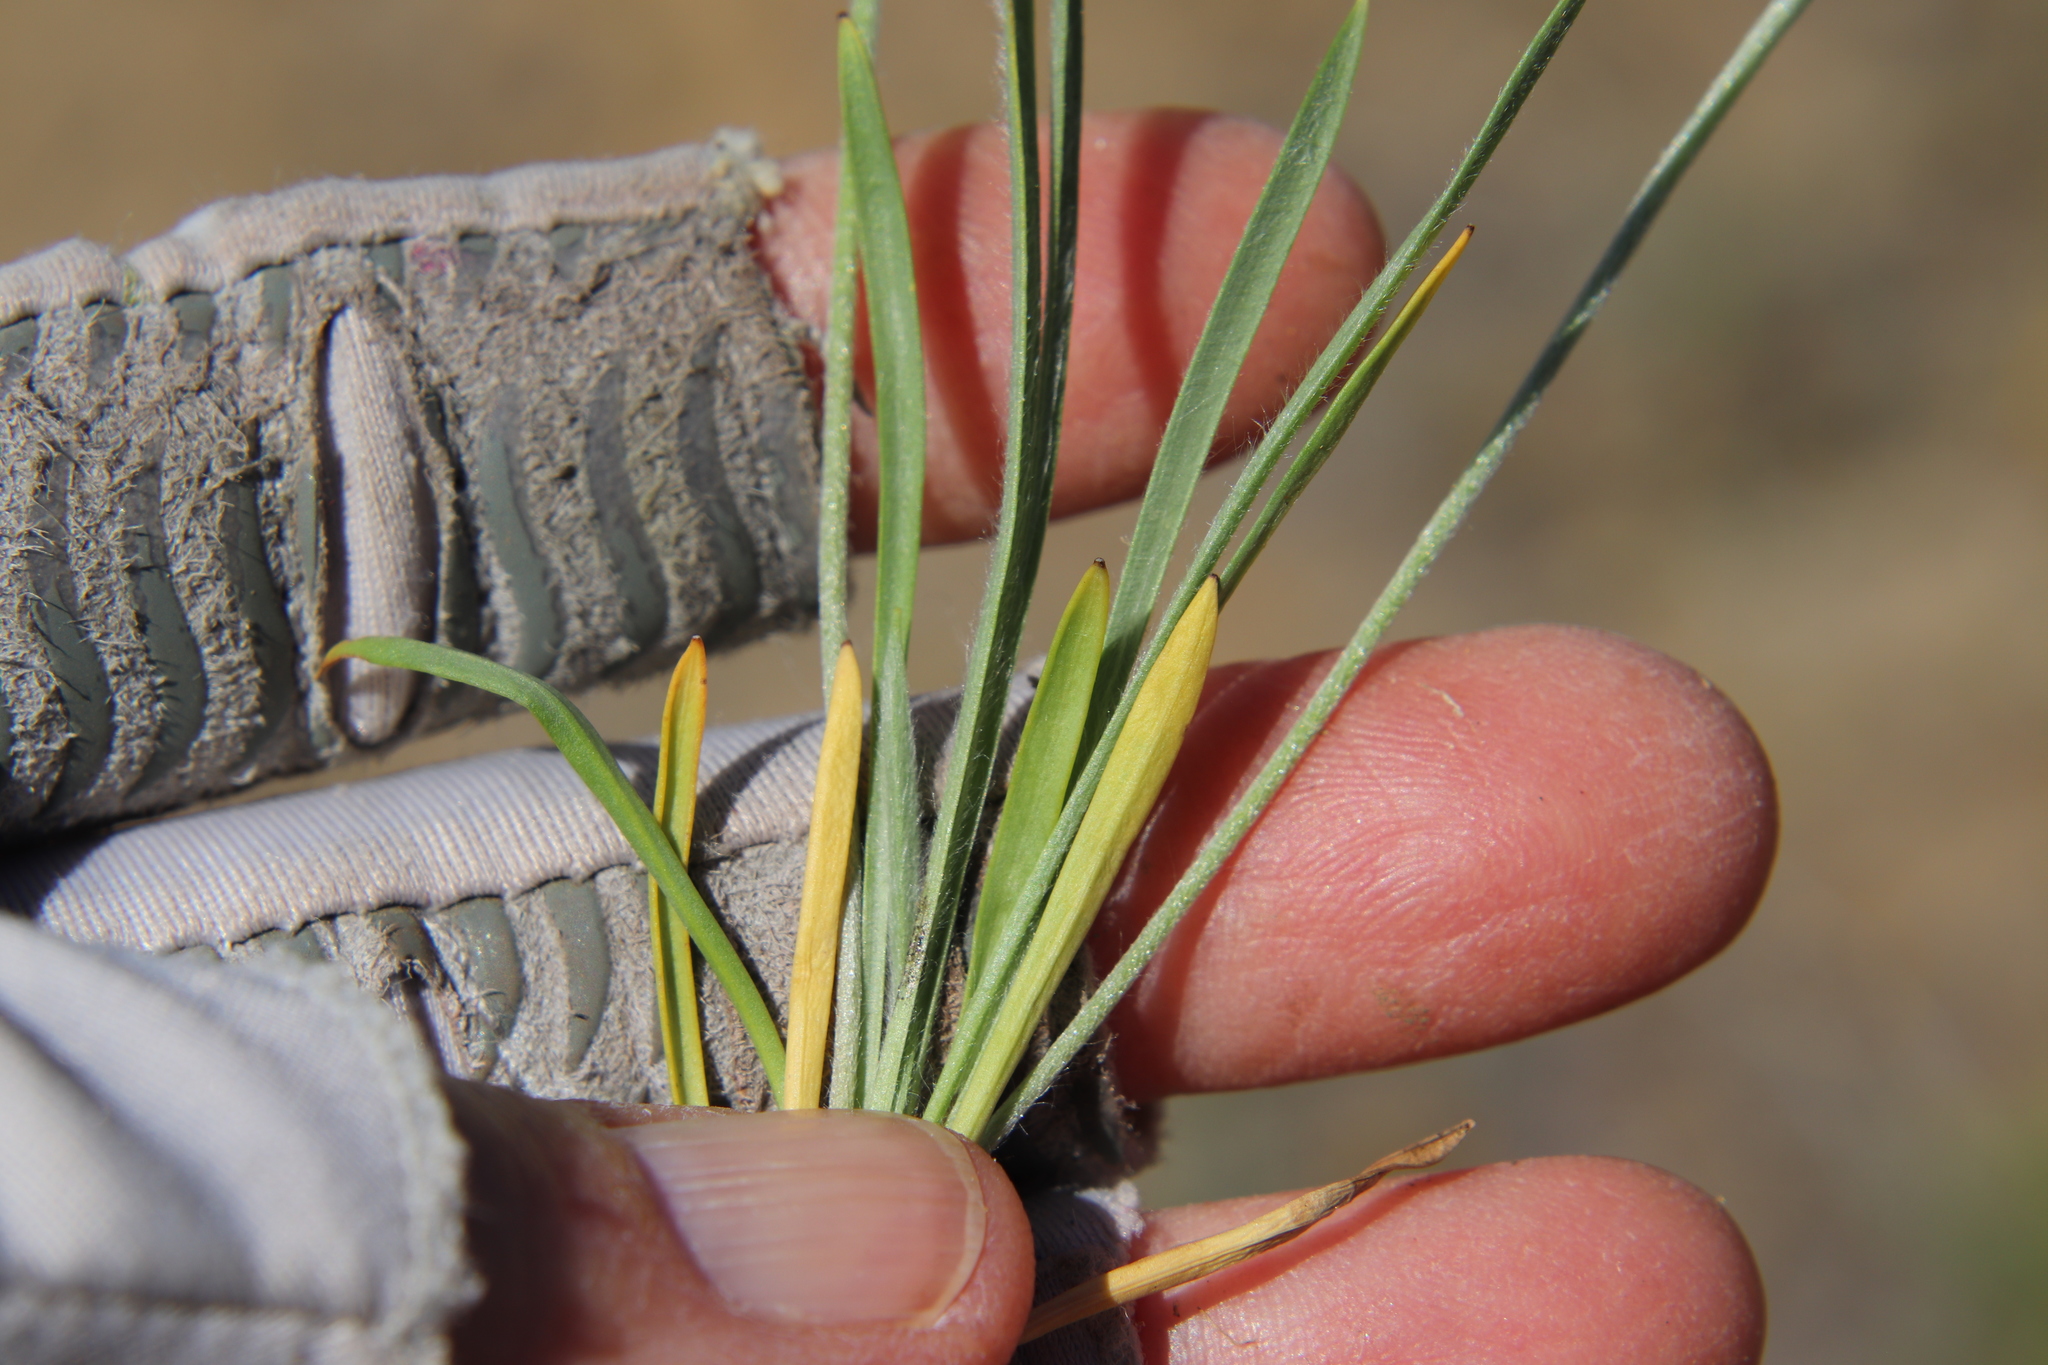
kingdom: Plantae
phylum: Tracheophyta
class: Magnoliopsida
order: Lamiales
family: Plantaginaceae
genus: Plantago
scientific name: Plantago patagonica
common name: Patagonia indian-wheat
